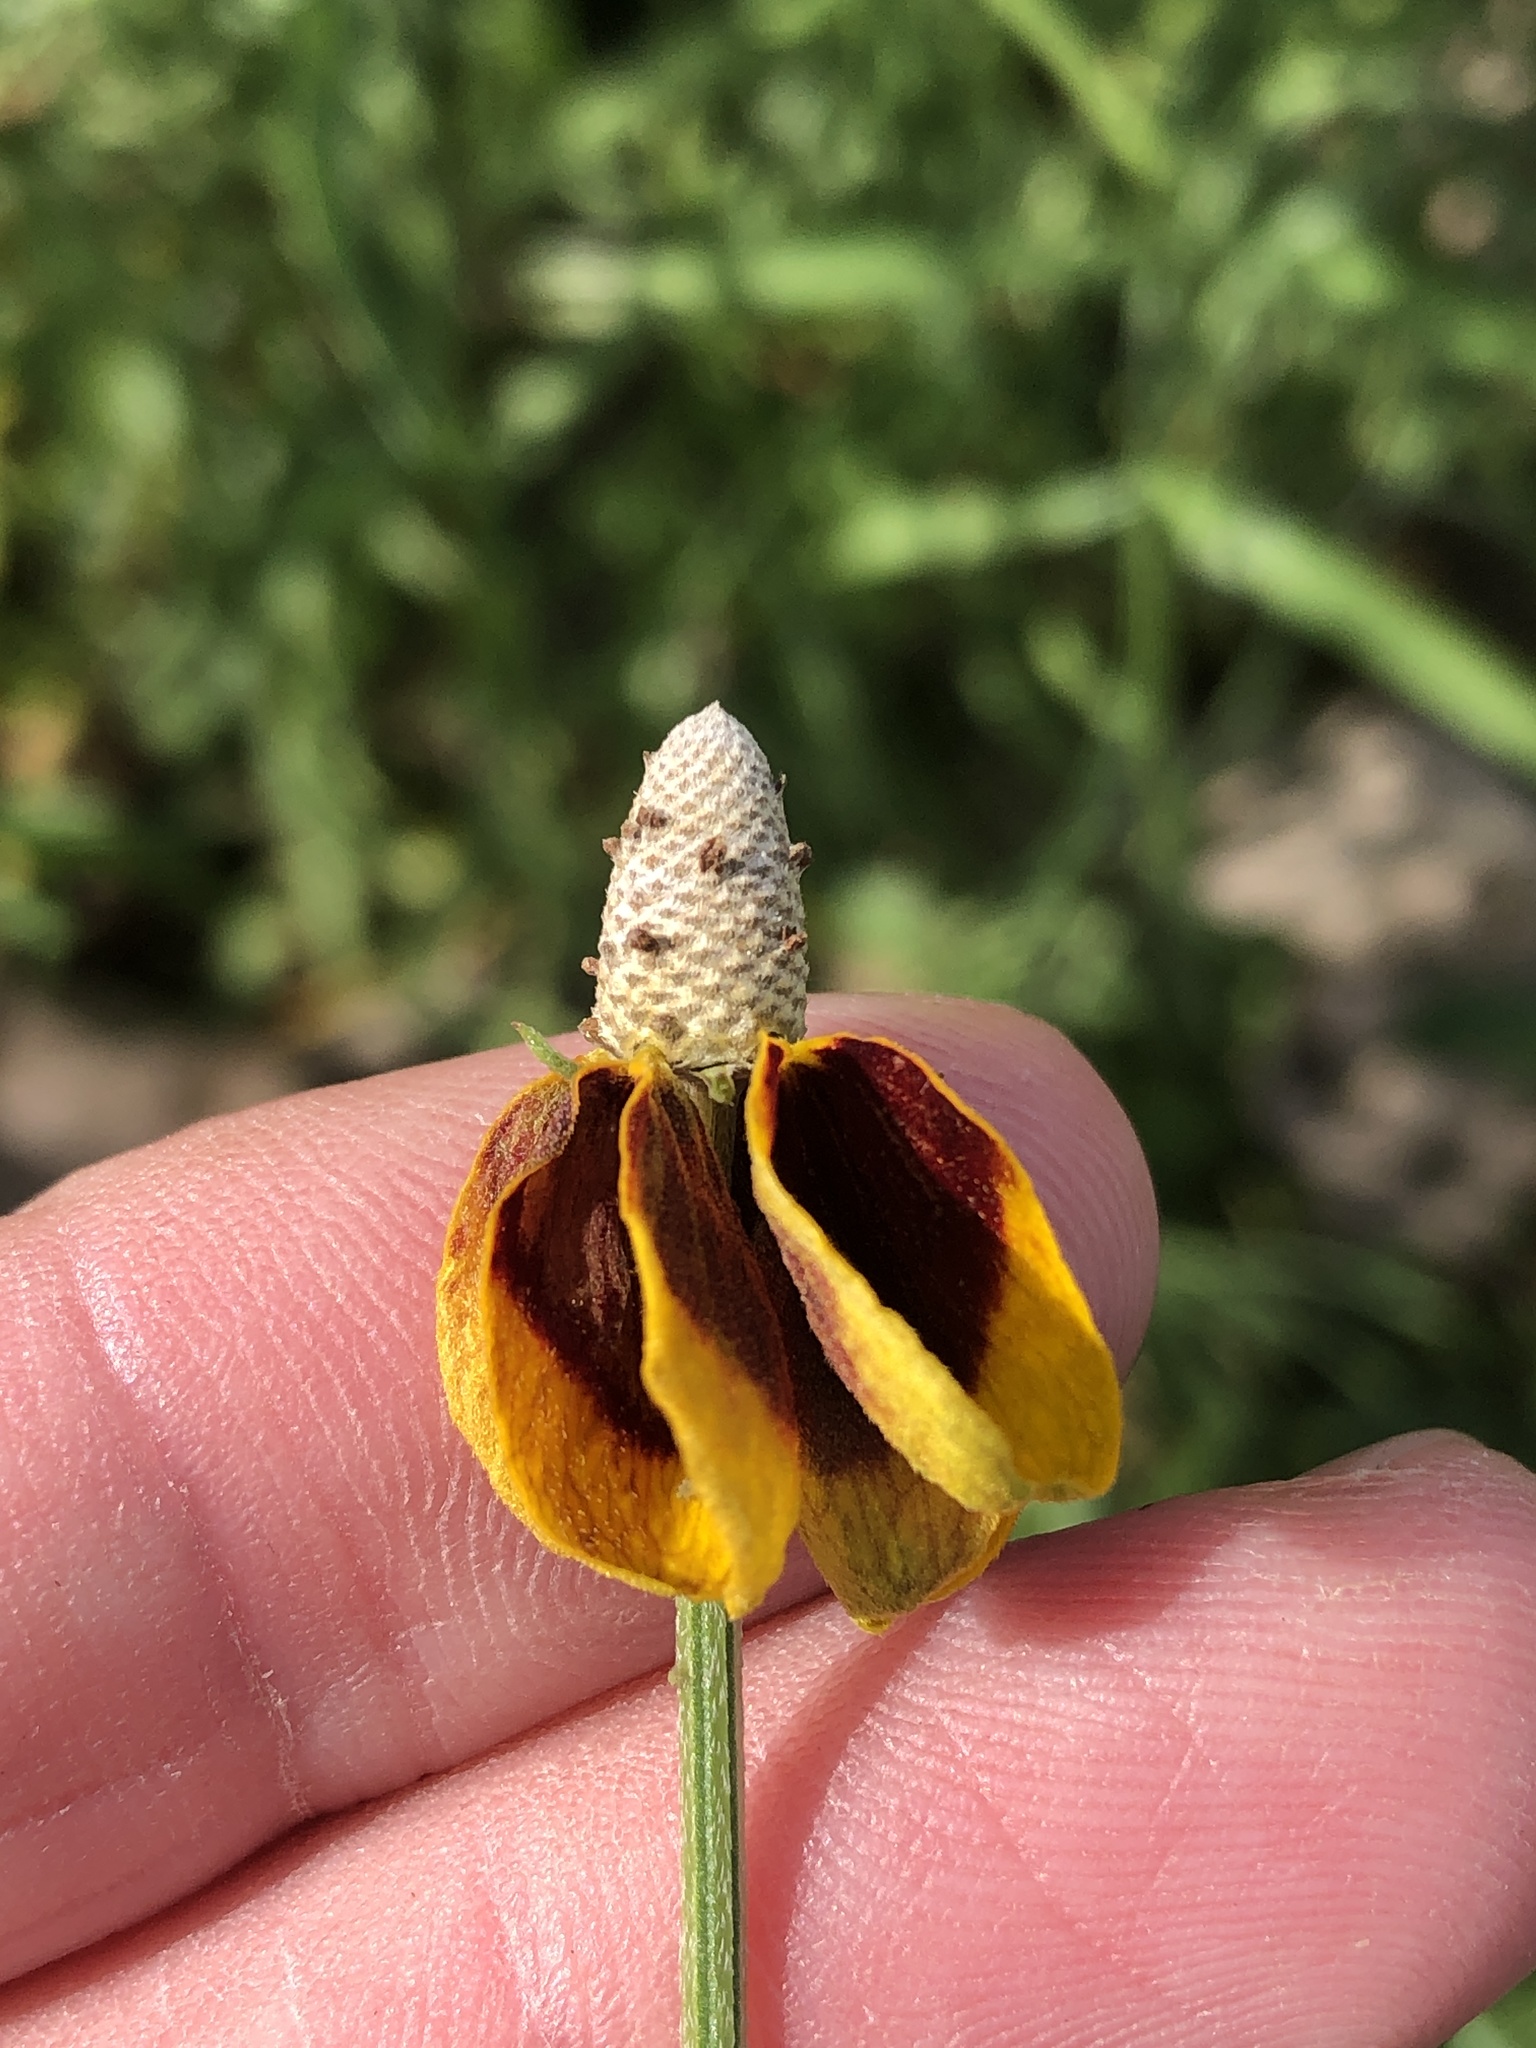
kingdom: Plantae
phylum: Tracheophyta
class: Magnoliopsida
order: Asterales
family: Asteraceae
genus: Ratibida
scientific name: Ratibida columnifera
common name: Prairie coneflower
